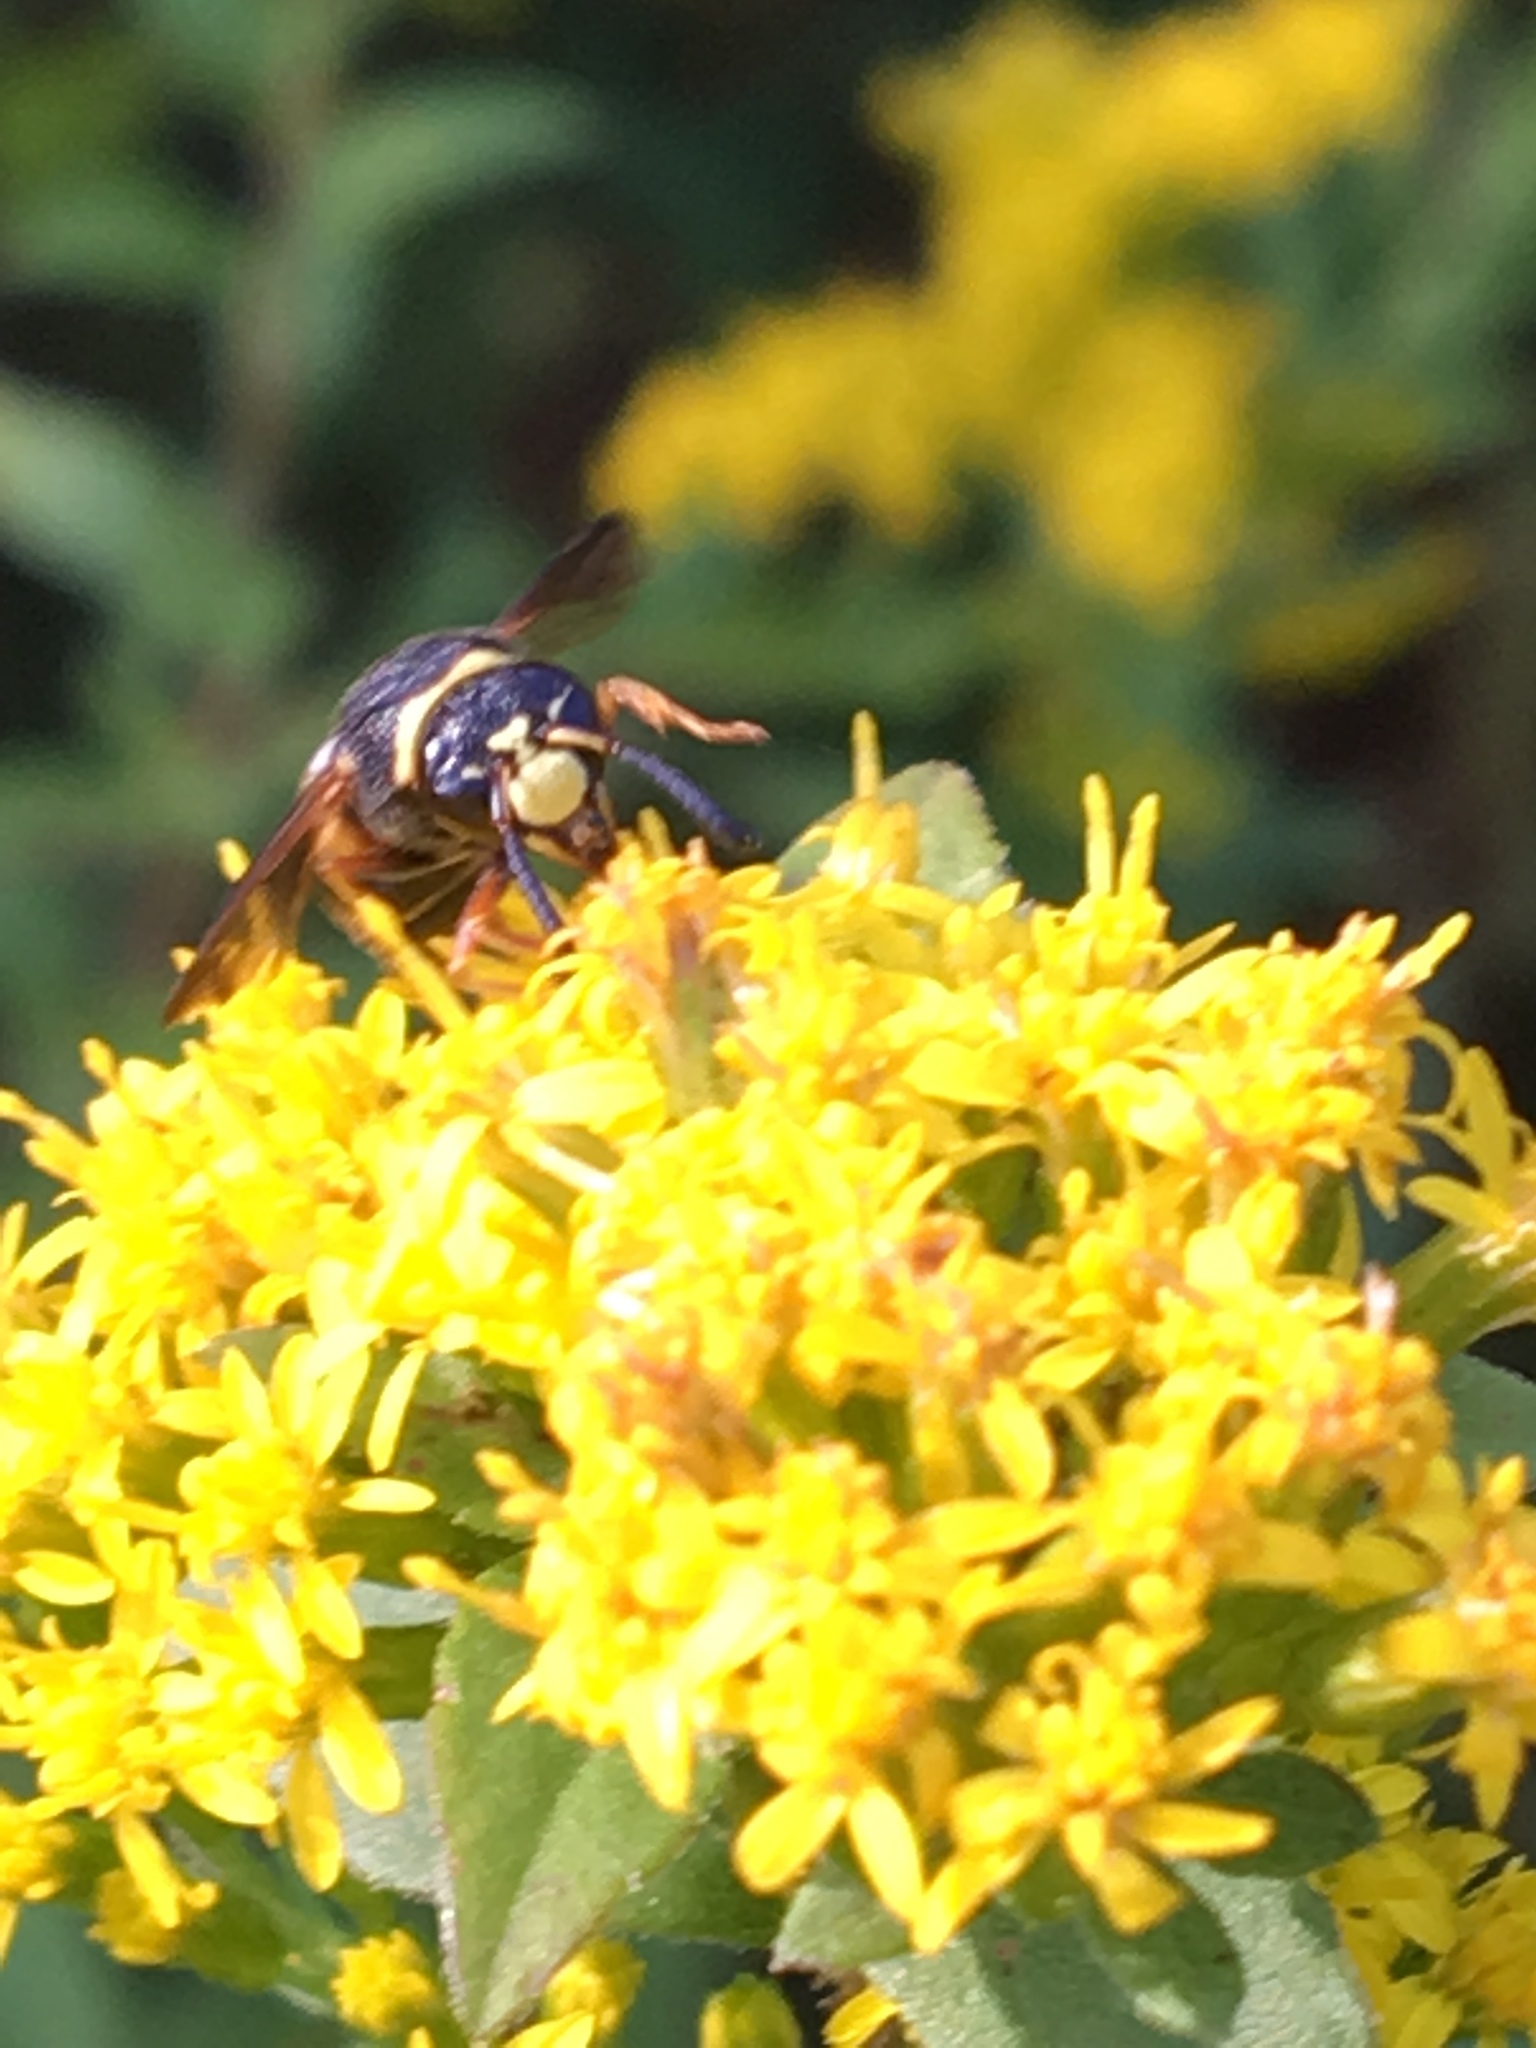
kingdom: Animalia
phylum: Arthropoda
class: Insecta
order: Hymenoptera
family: Eumenidae
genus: Euodynerus
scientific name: Euodynerus hidalgo
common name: Wasp
